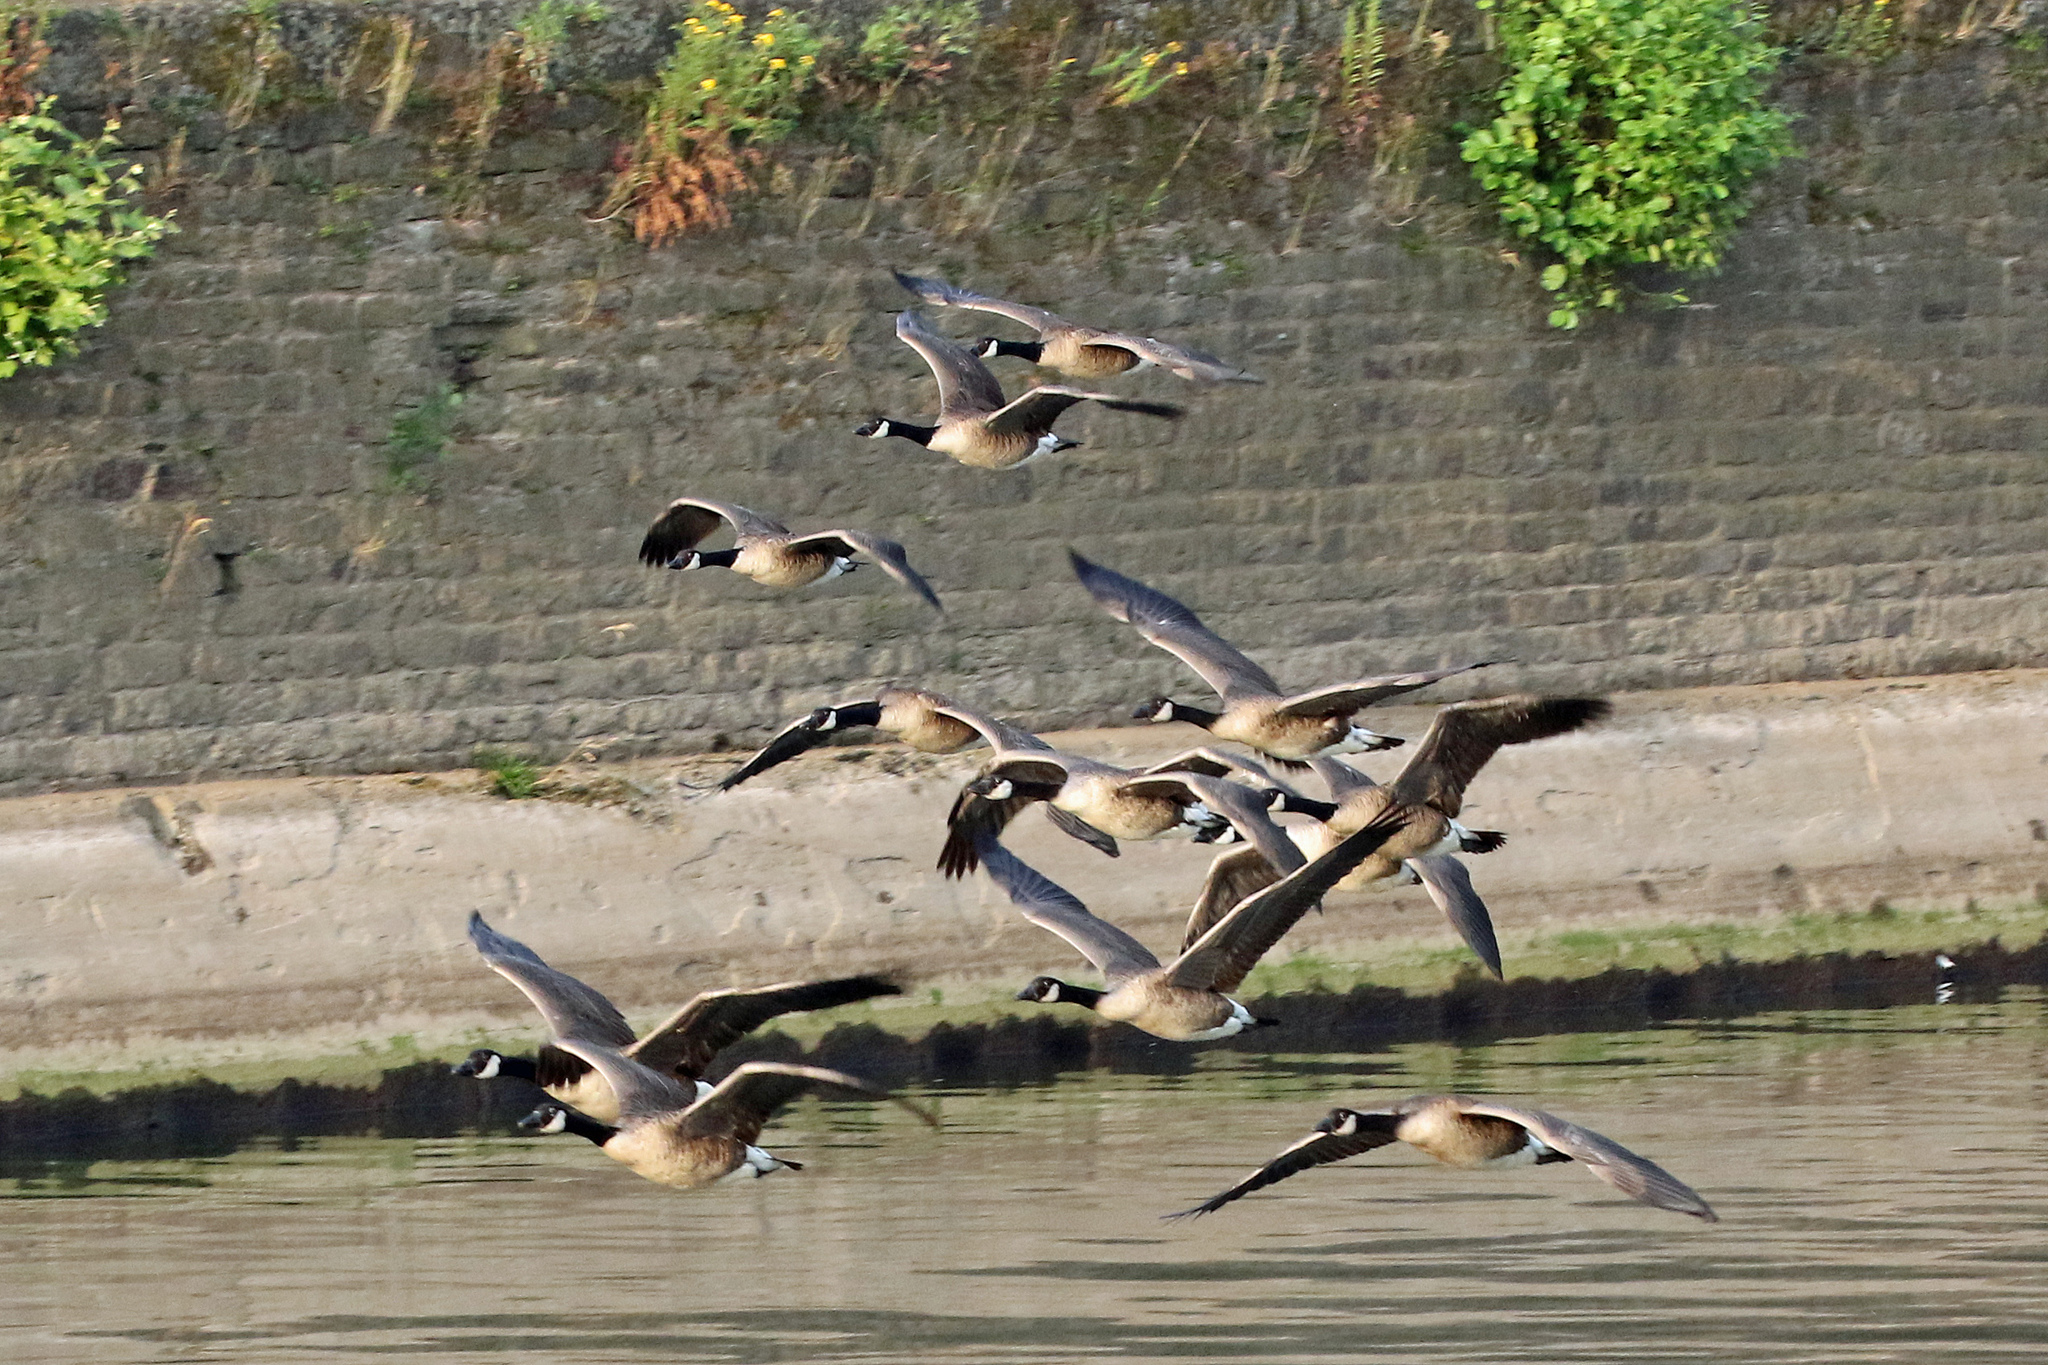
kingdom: Animalia
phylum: Chordata
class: Aves
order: Anseriformes
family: Anatidae
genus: Branta
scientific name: Branta canadensis
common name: Canada goose
